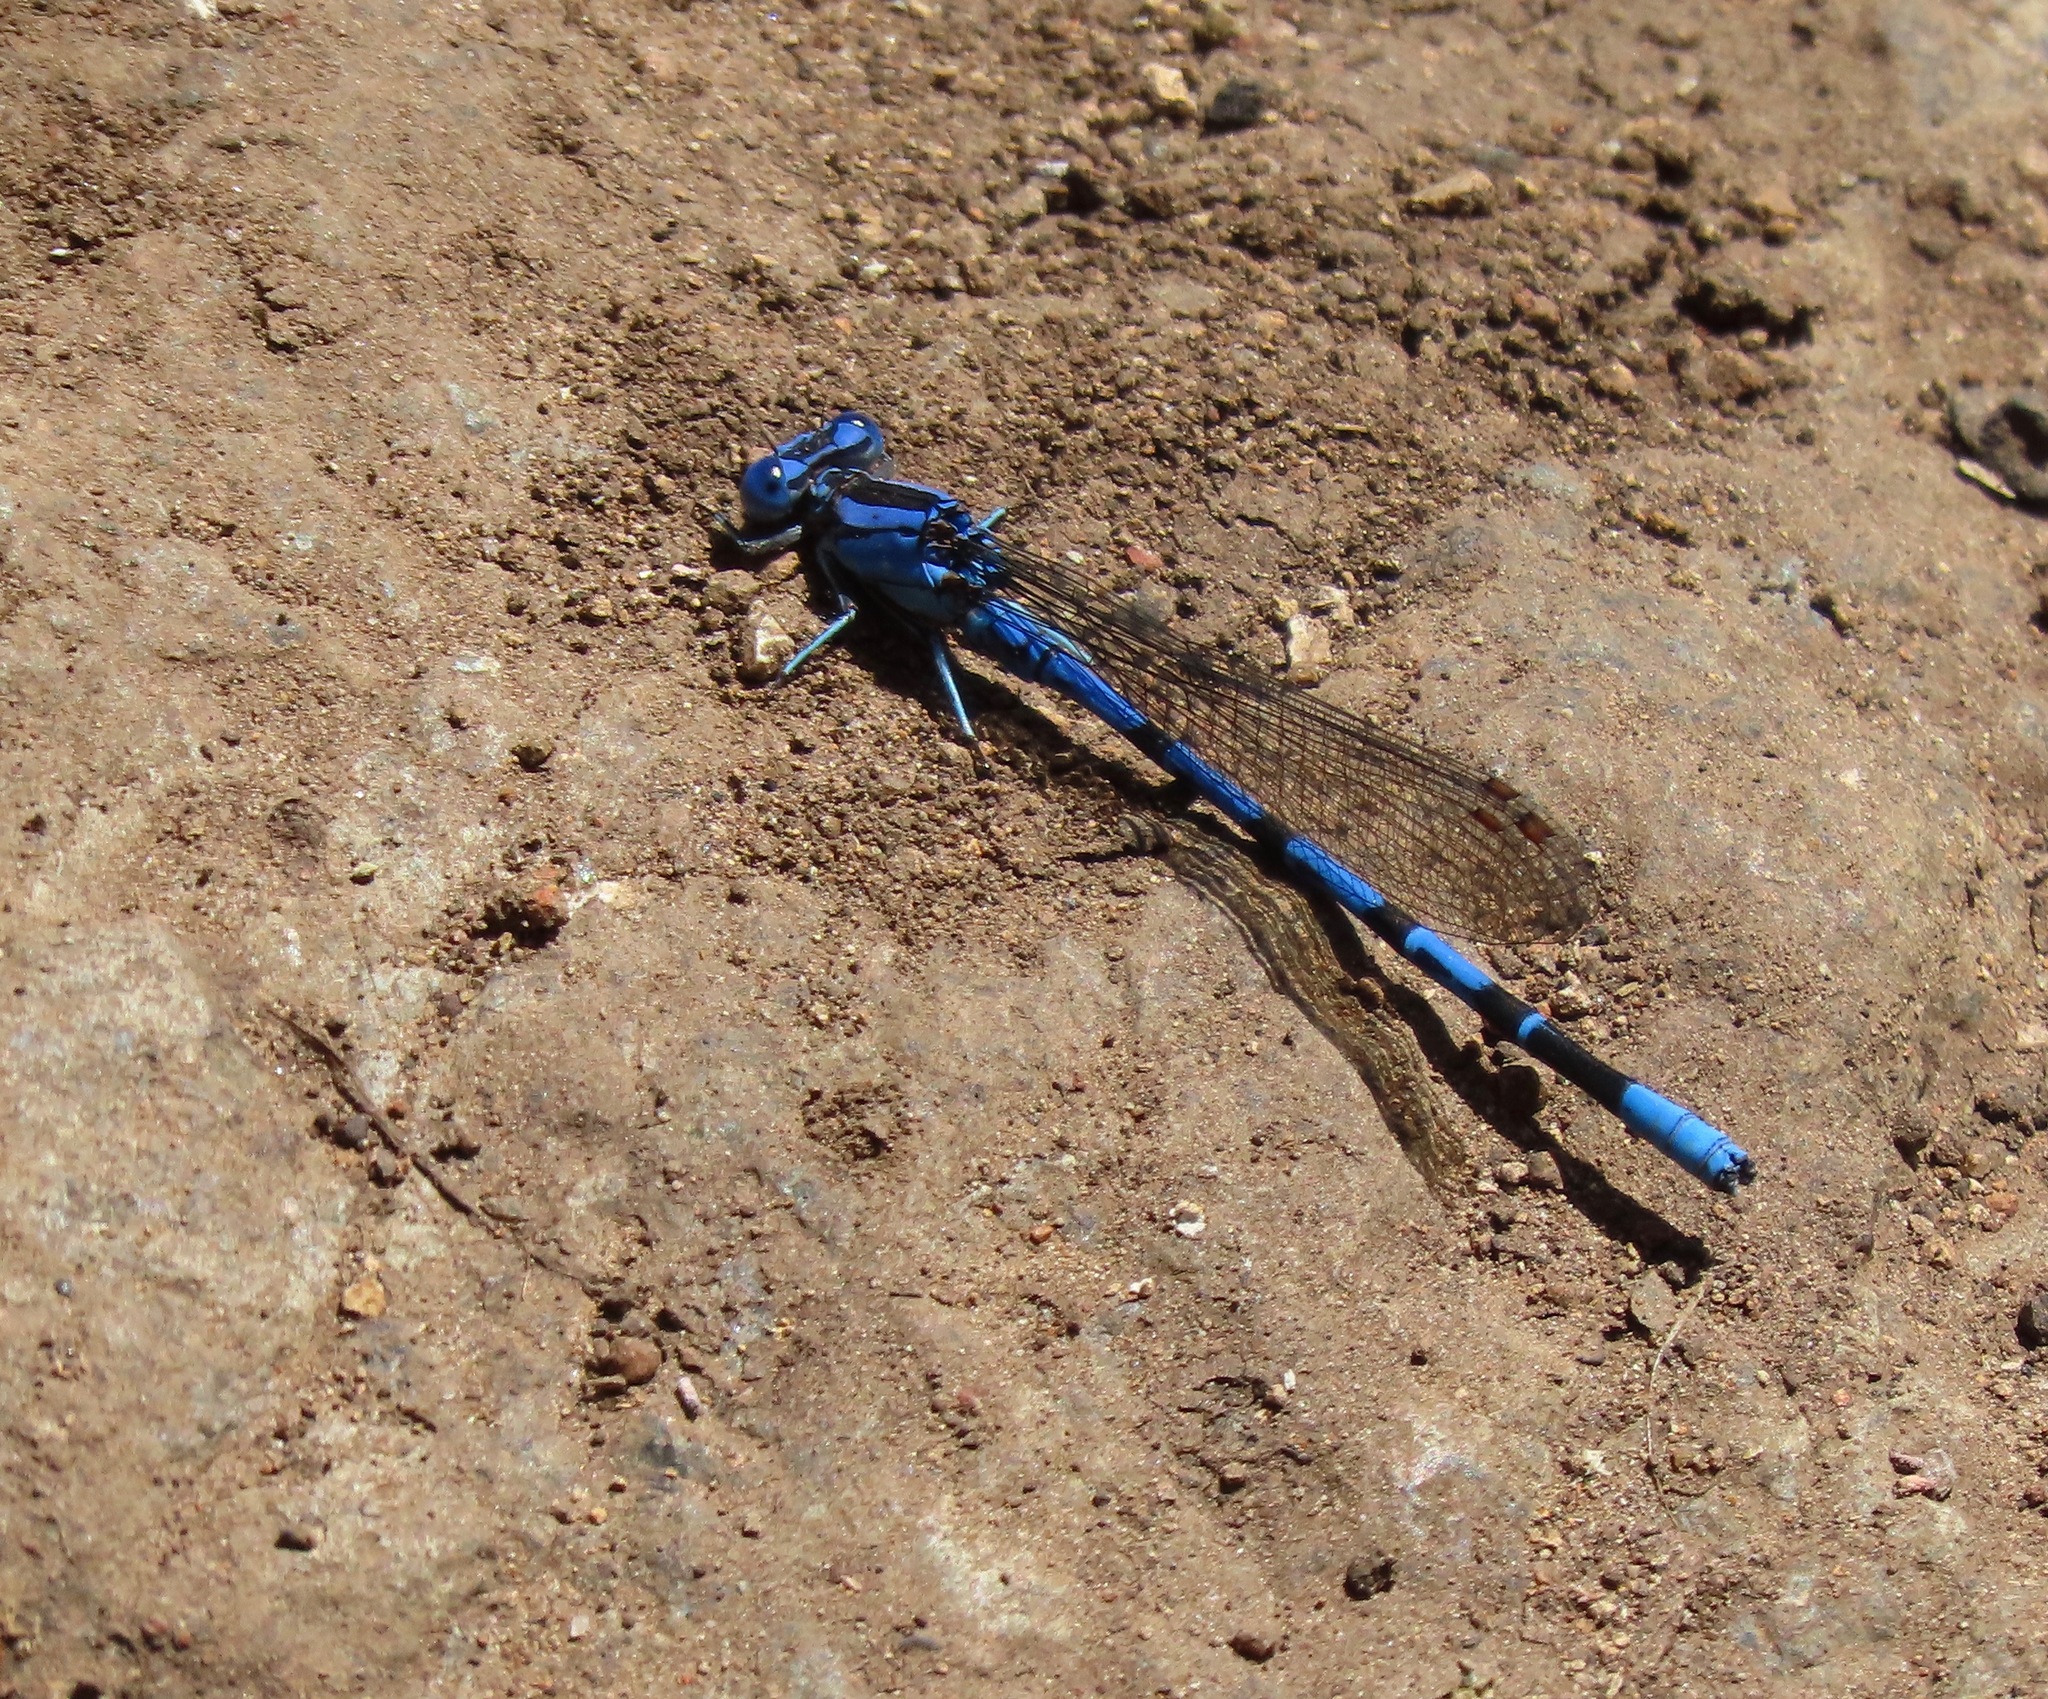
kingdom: Animalia
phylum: Arthropoda
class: Insecta
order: Odonata
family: Coenagrionidae
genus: Argia
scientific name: Argia vivida
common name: Vivid dancer
